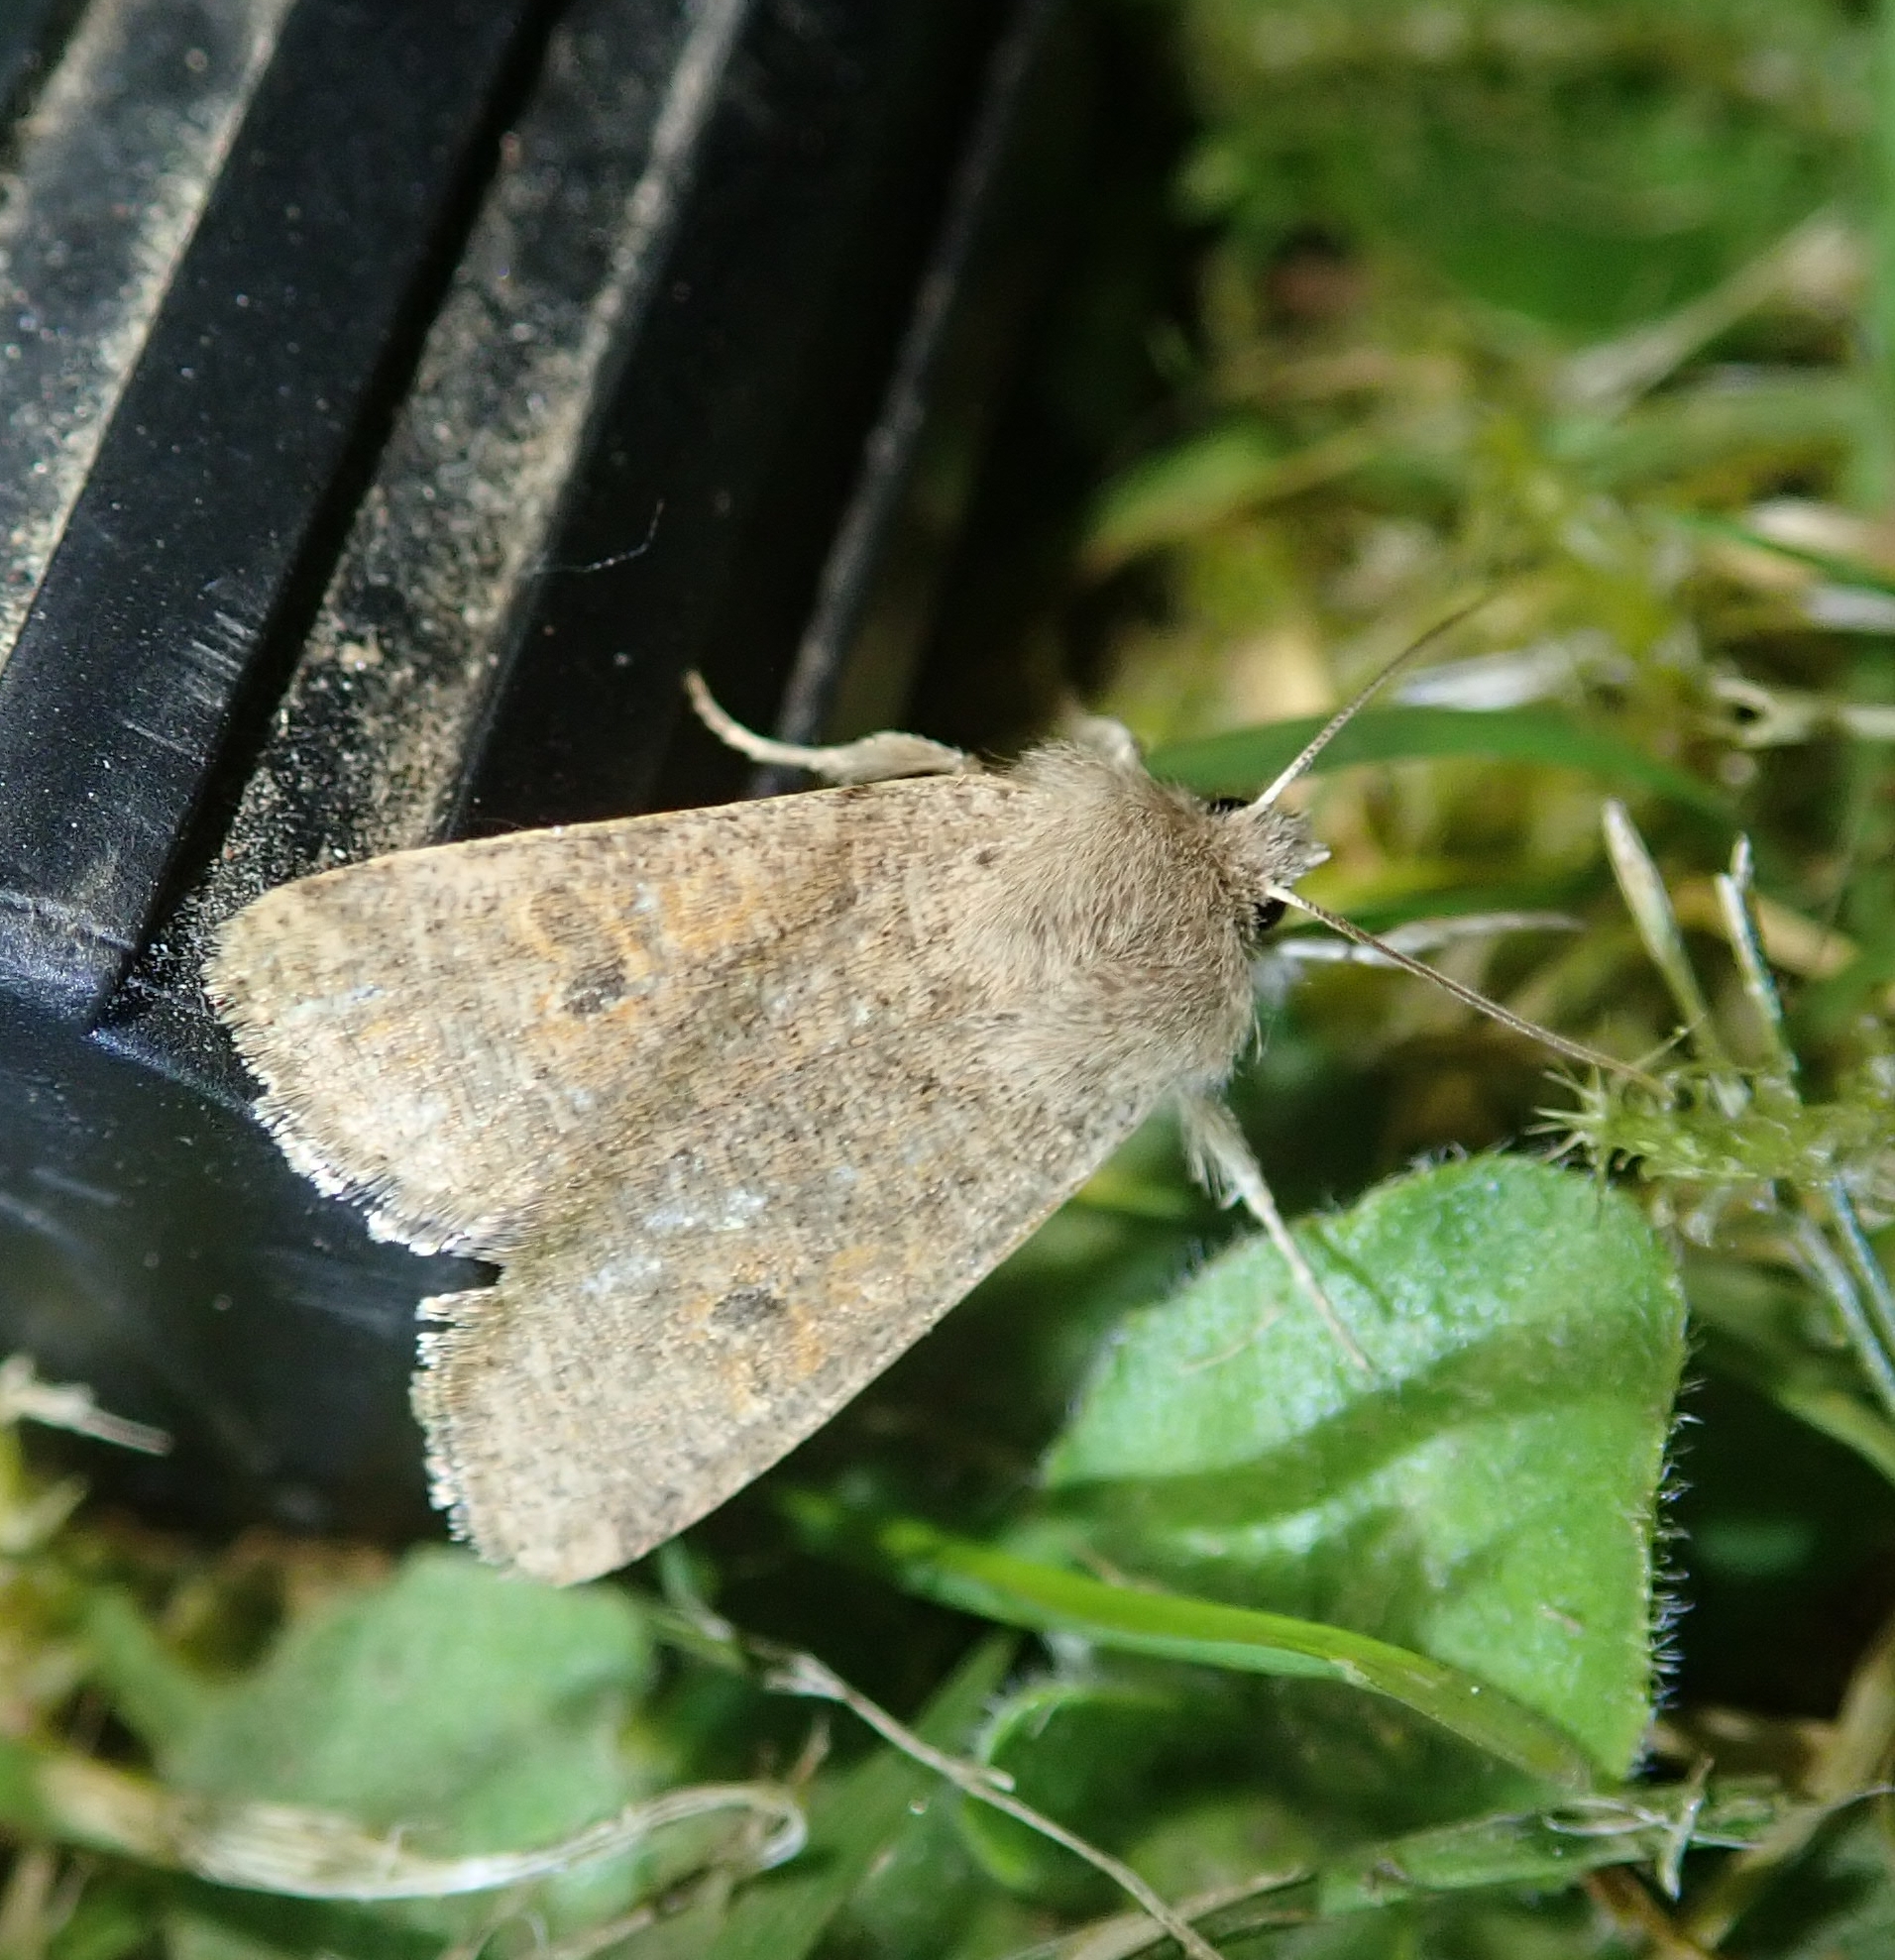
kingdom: Animalia
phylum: Arthropoda
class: Insecta
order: Lepidoptera
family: Noctuidae
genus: Orthosia
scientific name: Orthosia cruda
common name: Small quaker
